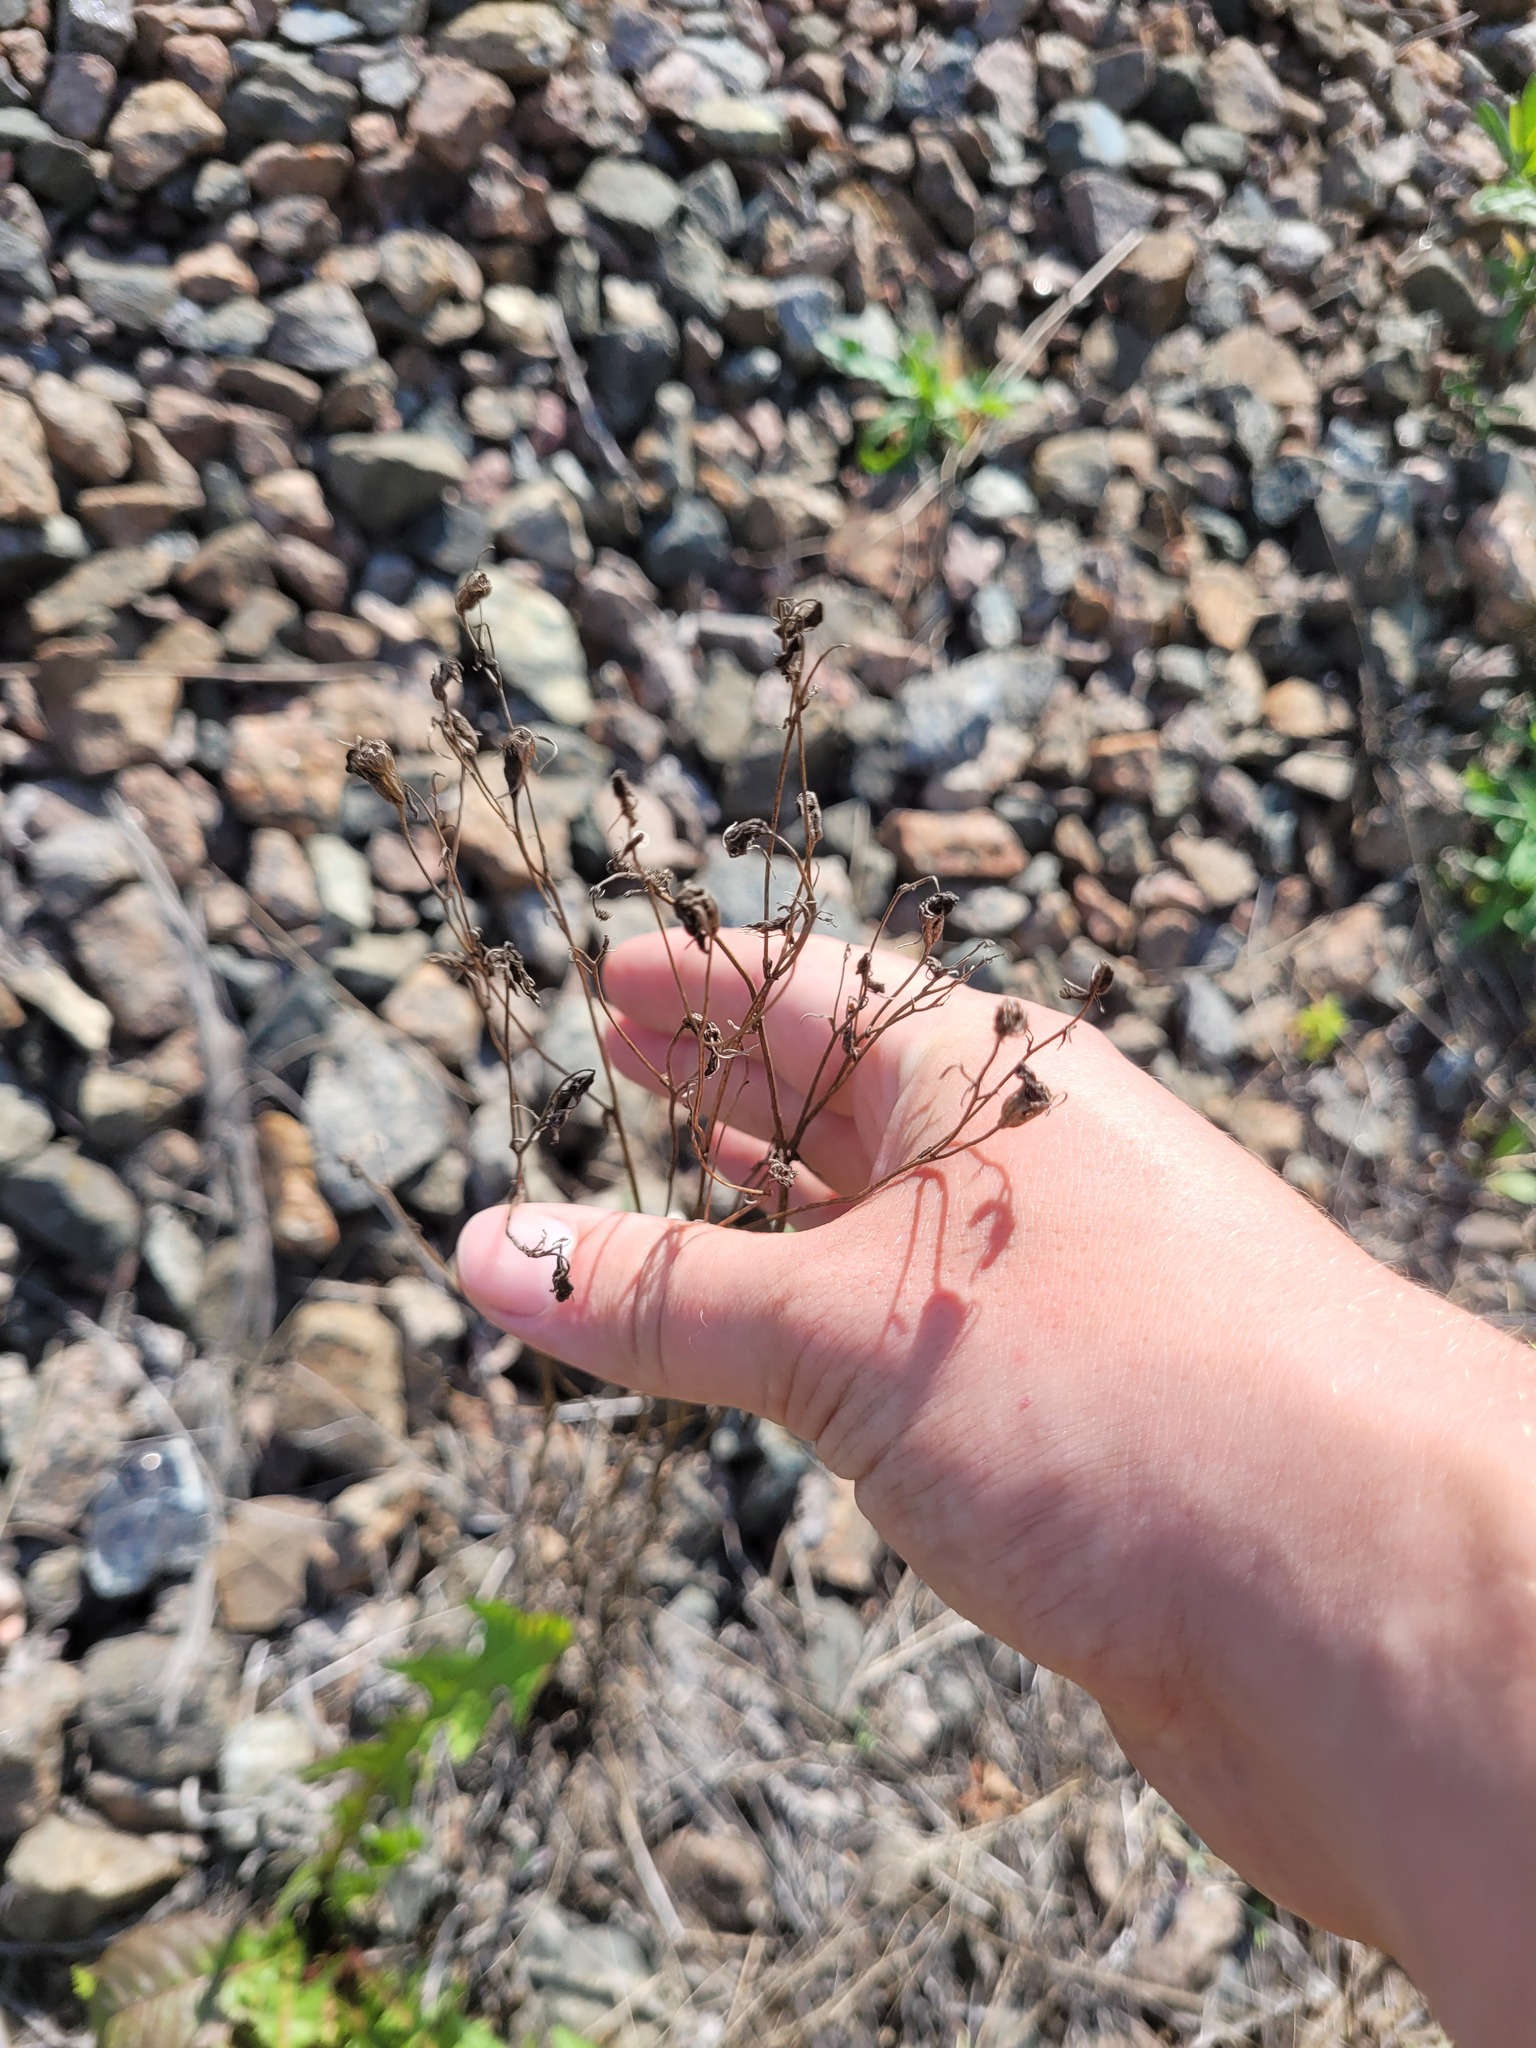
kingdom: Plantae
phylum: Tracheophyta
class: Magnoliopsida
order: Asterales
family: Campanulaceae
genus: Campanula
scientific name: Campanula patula
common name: Spreading bellflower
